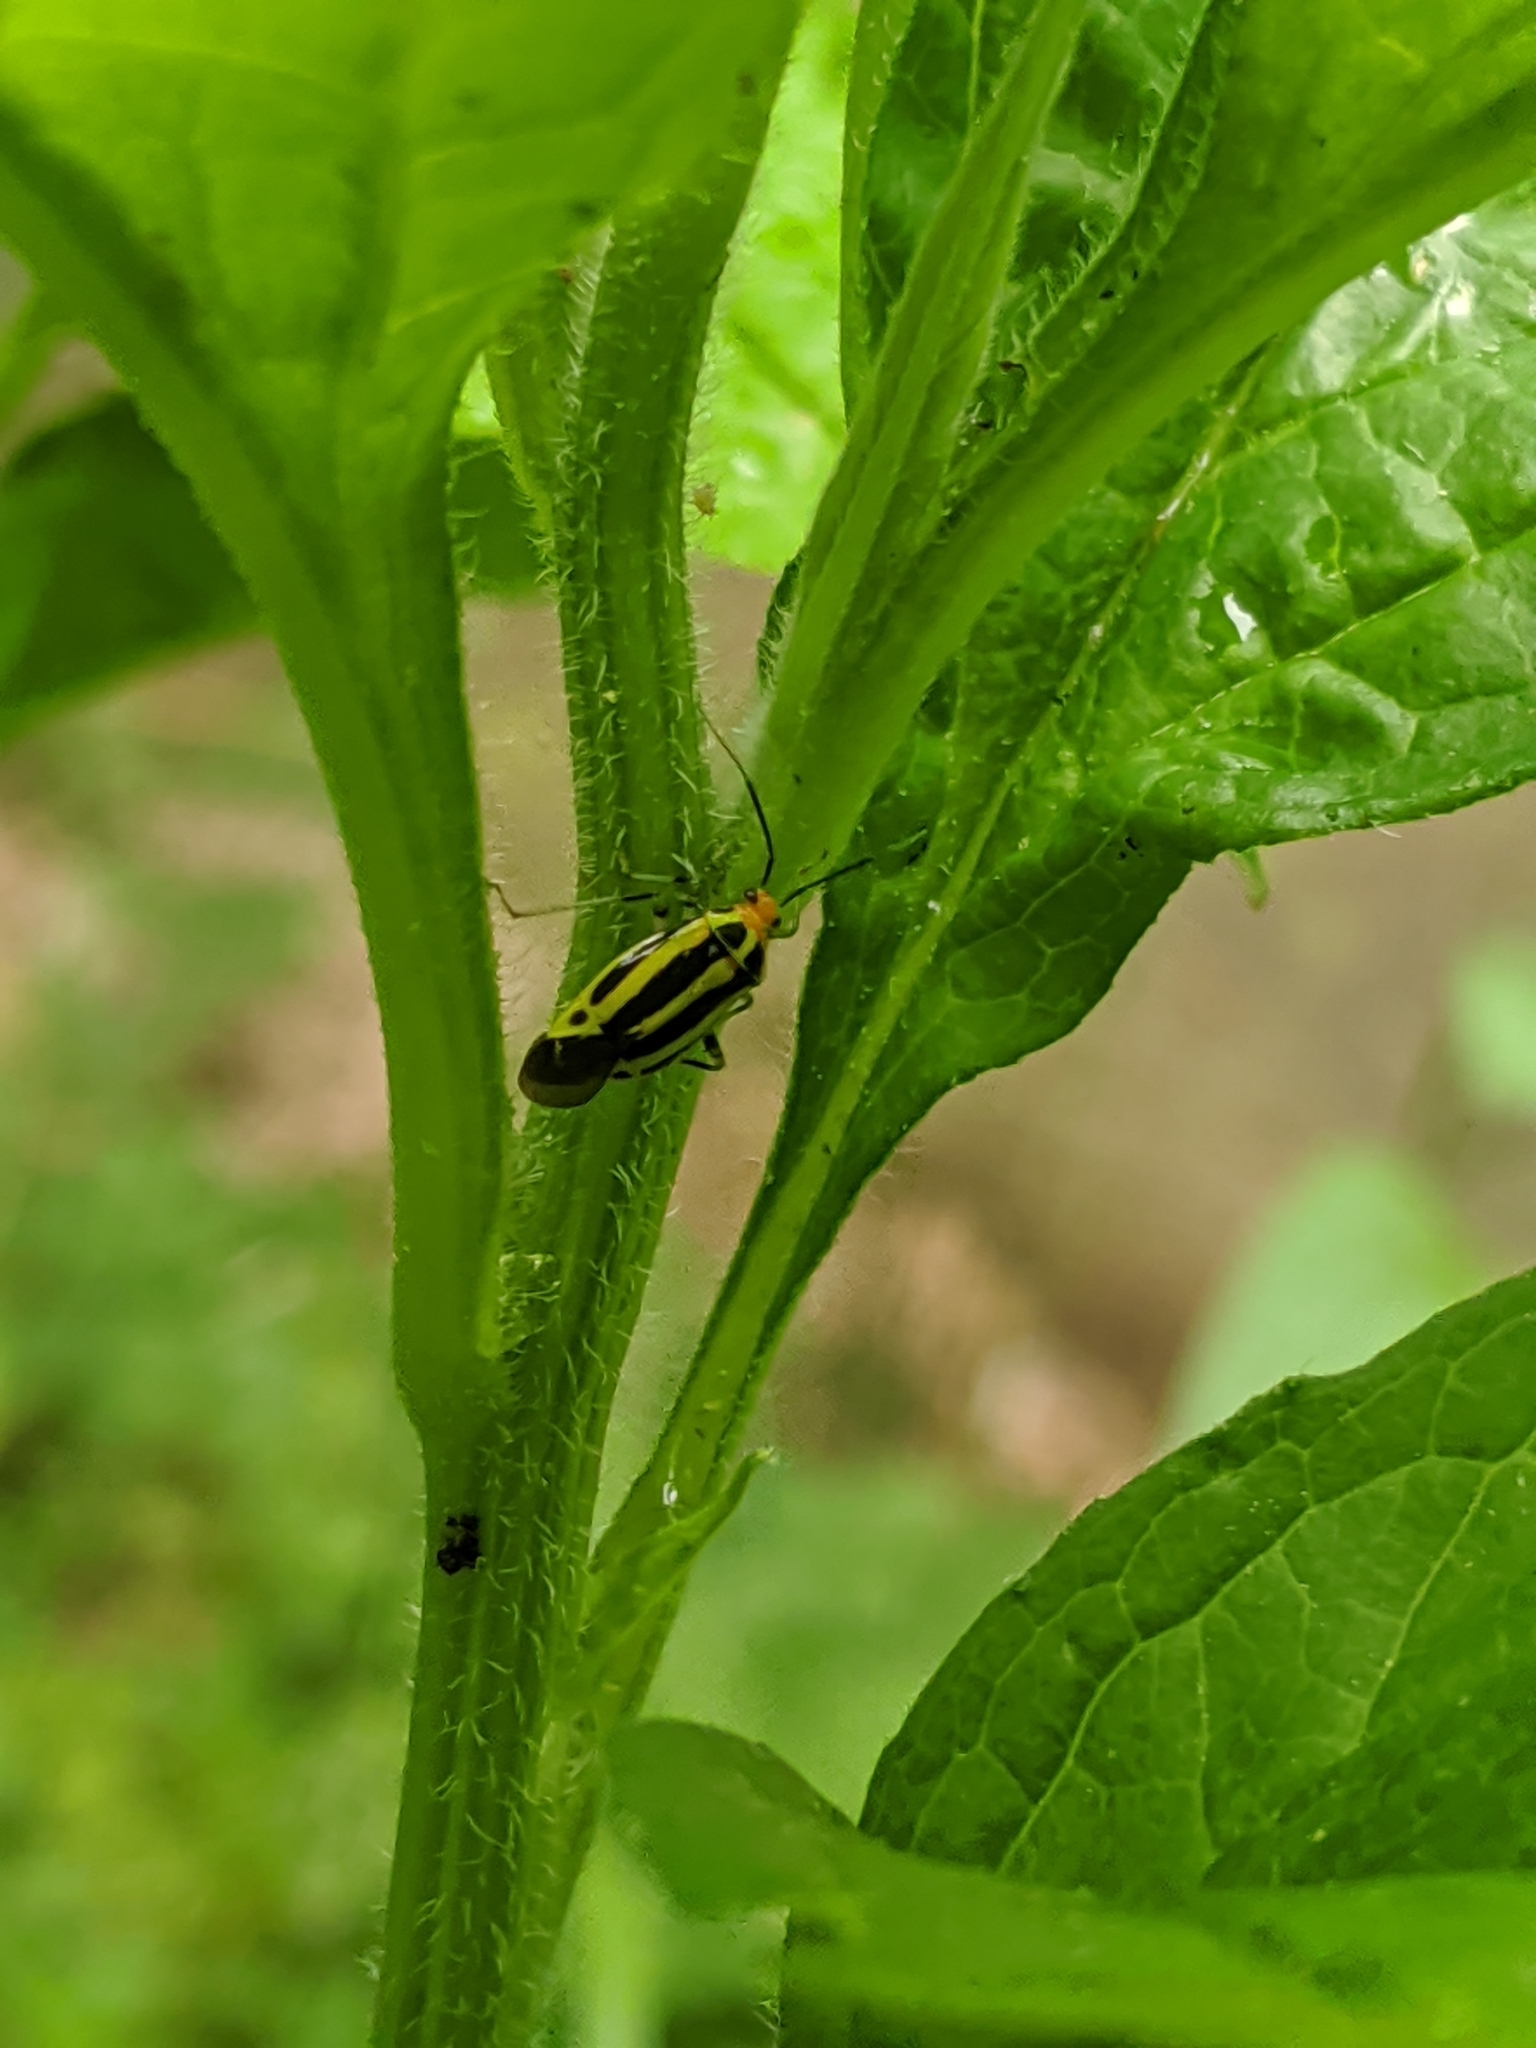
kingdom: Animalia
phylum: Arthropoda
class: Insecta
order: Hemiptera
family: Miridae
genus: Poecilocapsus
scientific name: Poecilocapsus lineatus
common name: Four-lined plant bug
